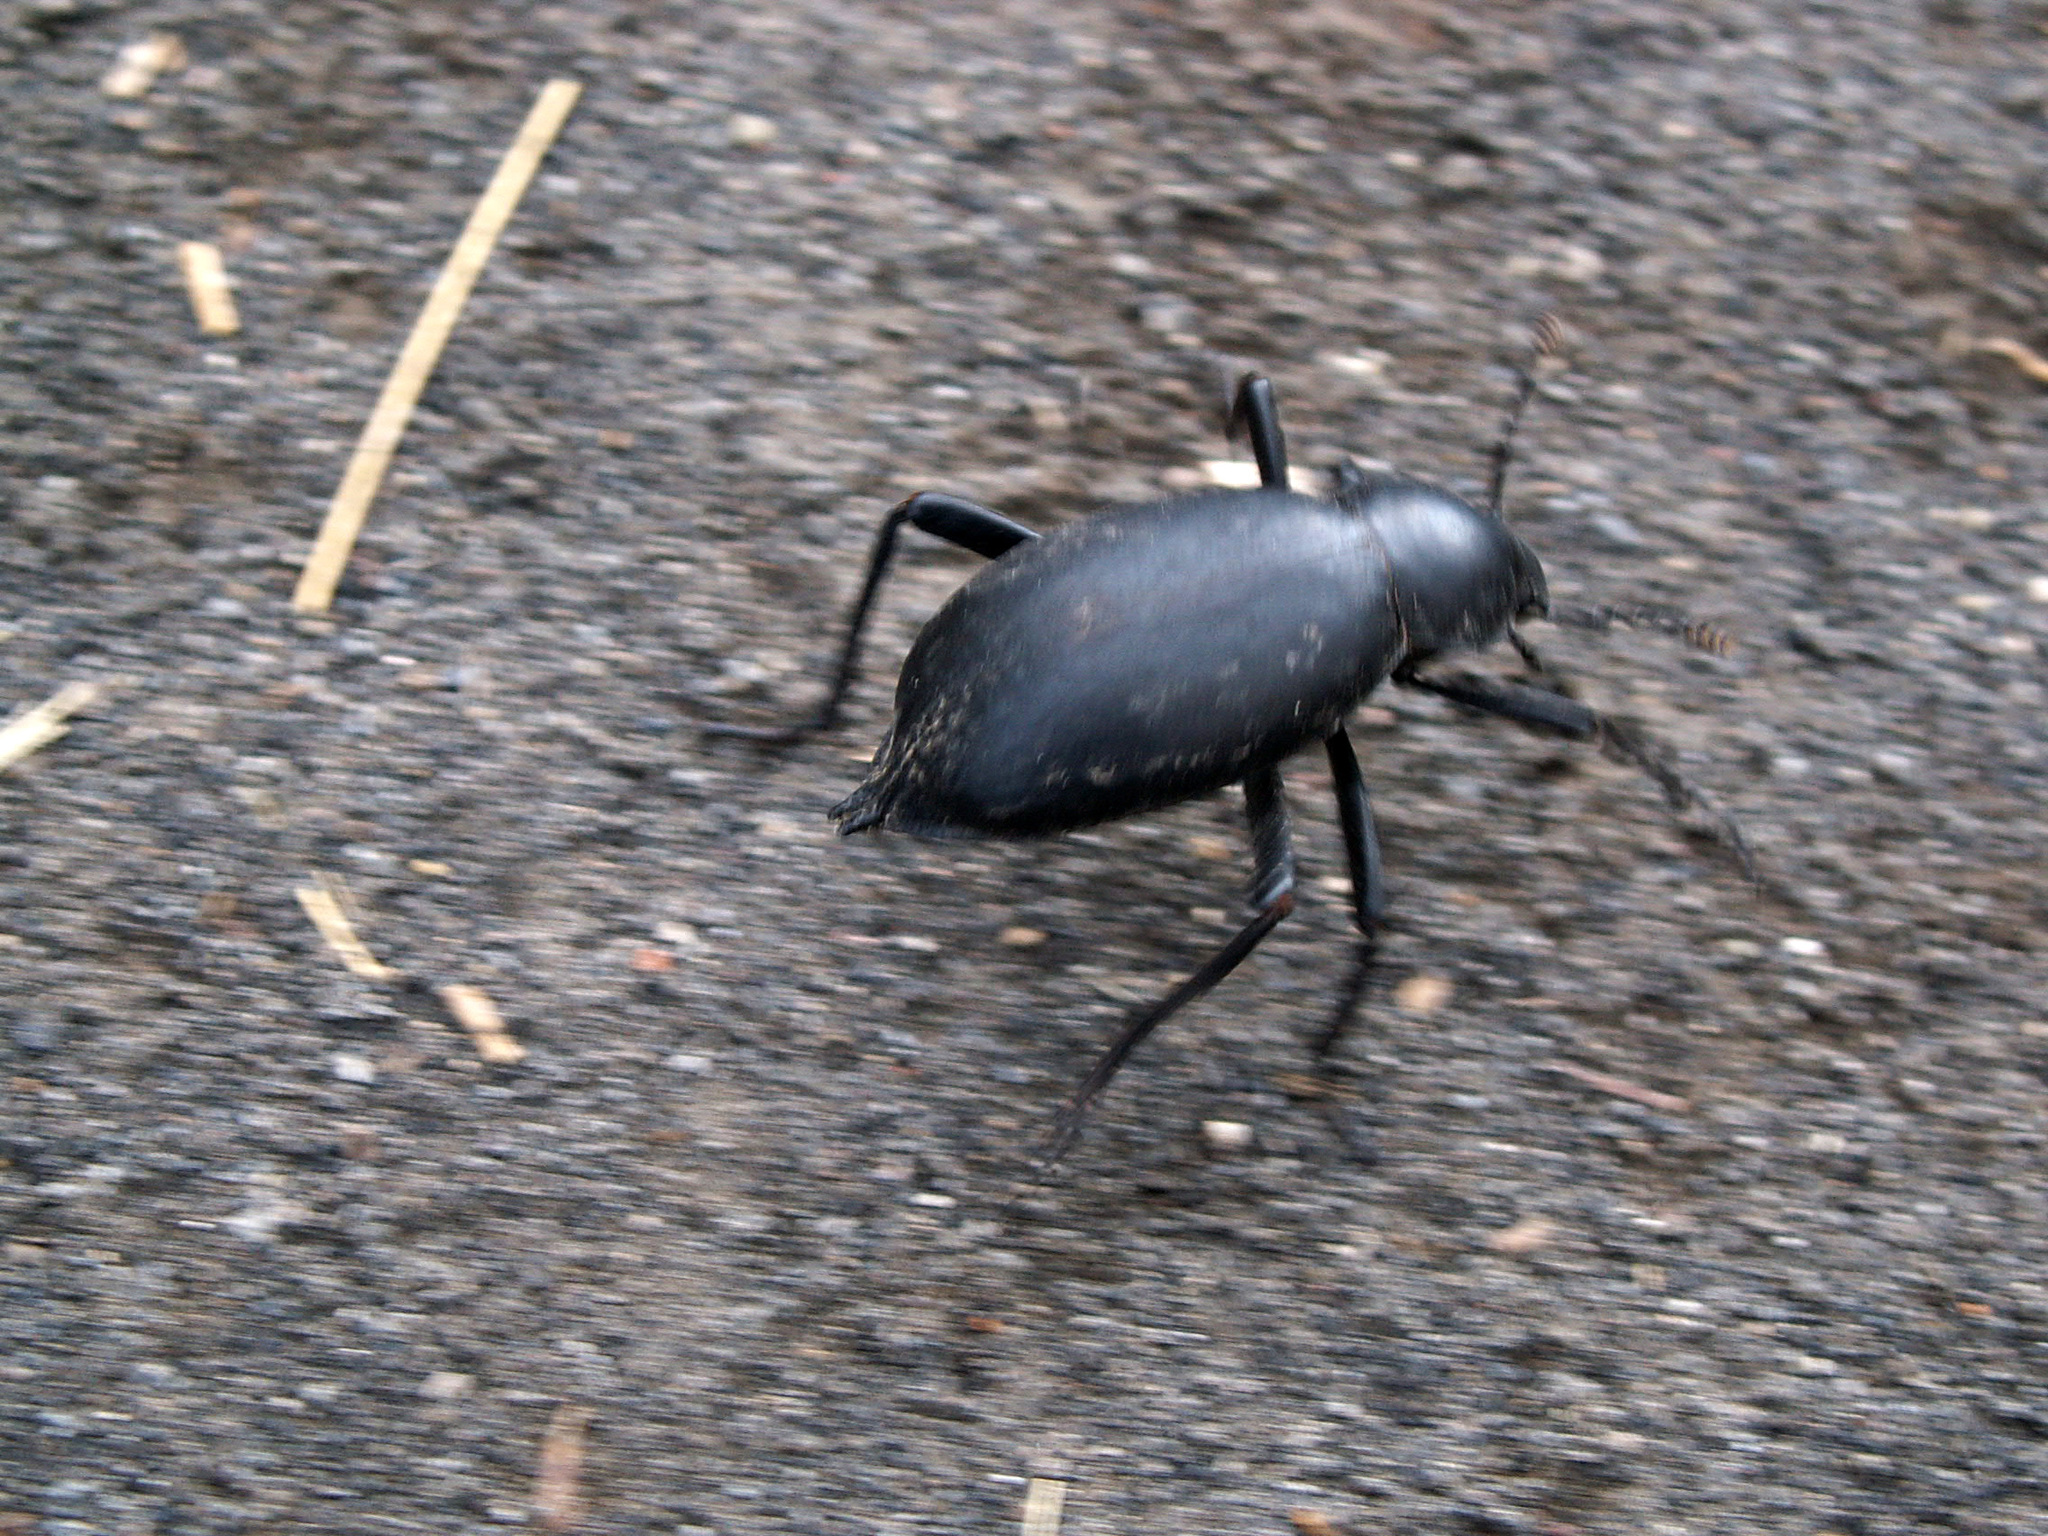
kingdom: Animalia
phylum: Arthropoda
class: Insecta
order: Coleoptera
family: Tenebrionidae
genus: Blaps
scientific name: Blaps mucronata
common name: Churchyard beetle, cellar beetle
